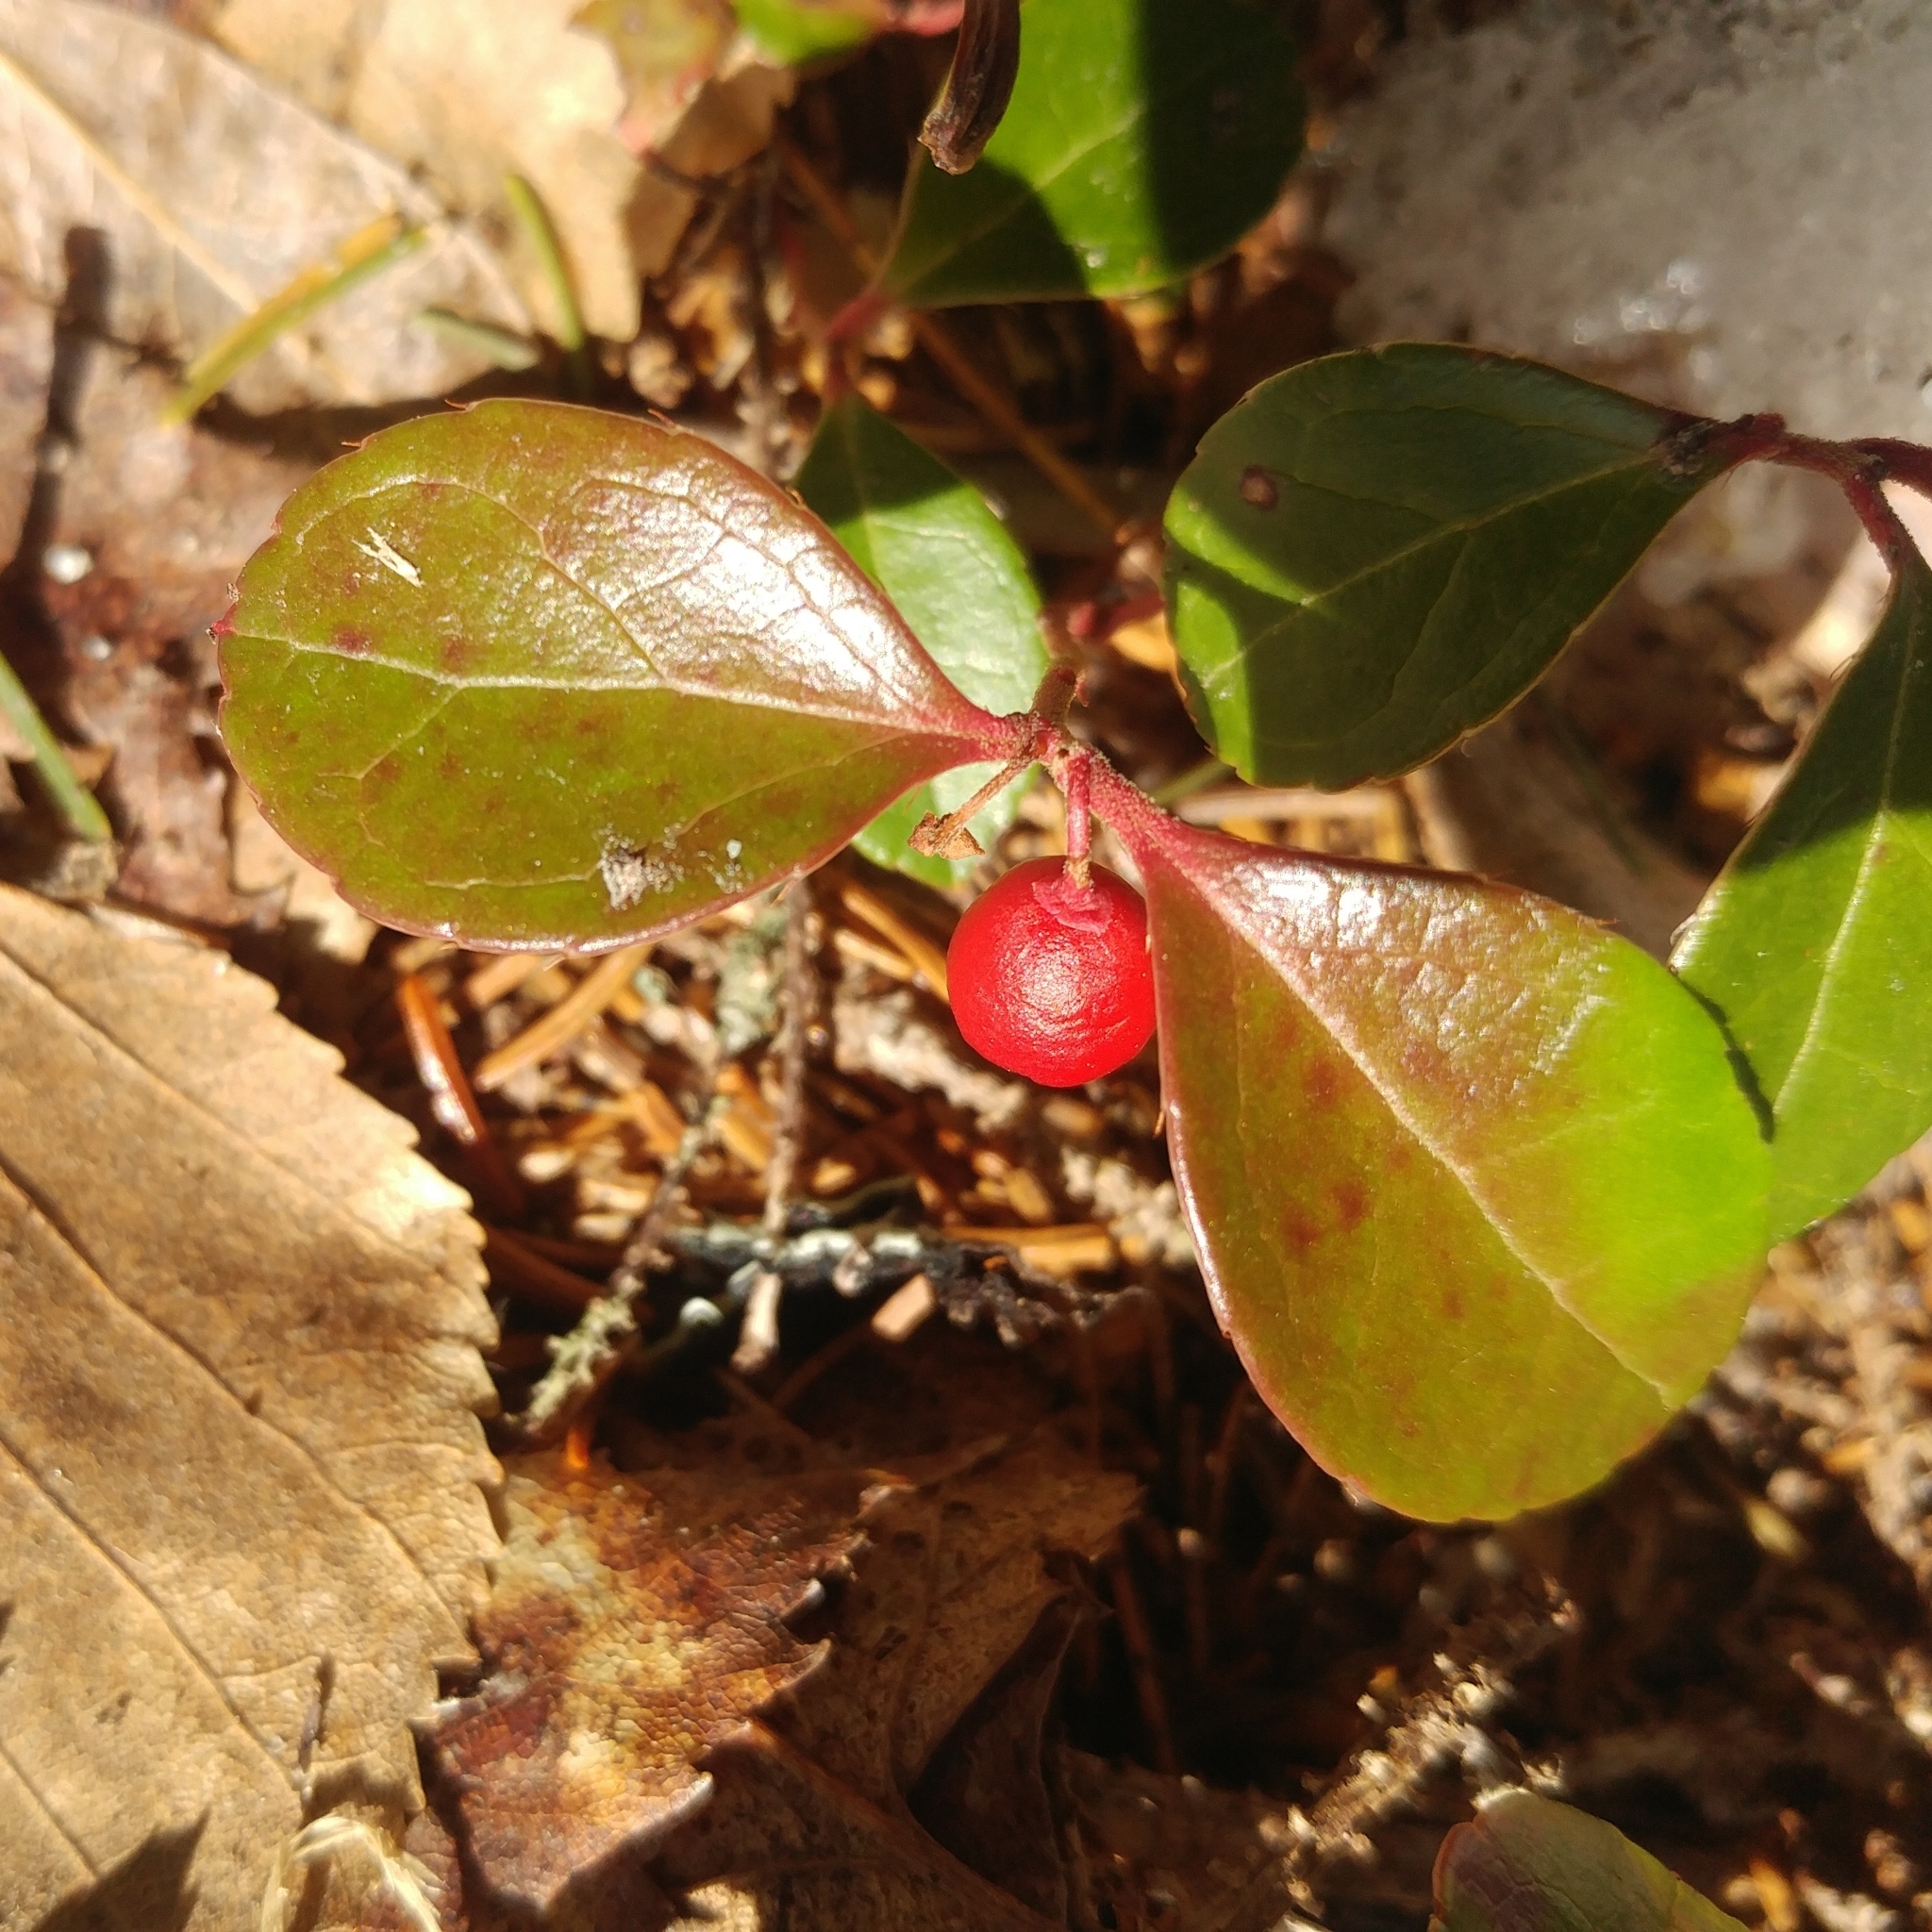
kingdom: Plantae
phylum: Tracheophyta
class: Magnoliopsida
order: Ericales
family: Ericaceae
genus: Gaultheria
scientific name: Gaultheria procumbens
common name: Checkerberry
